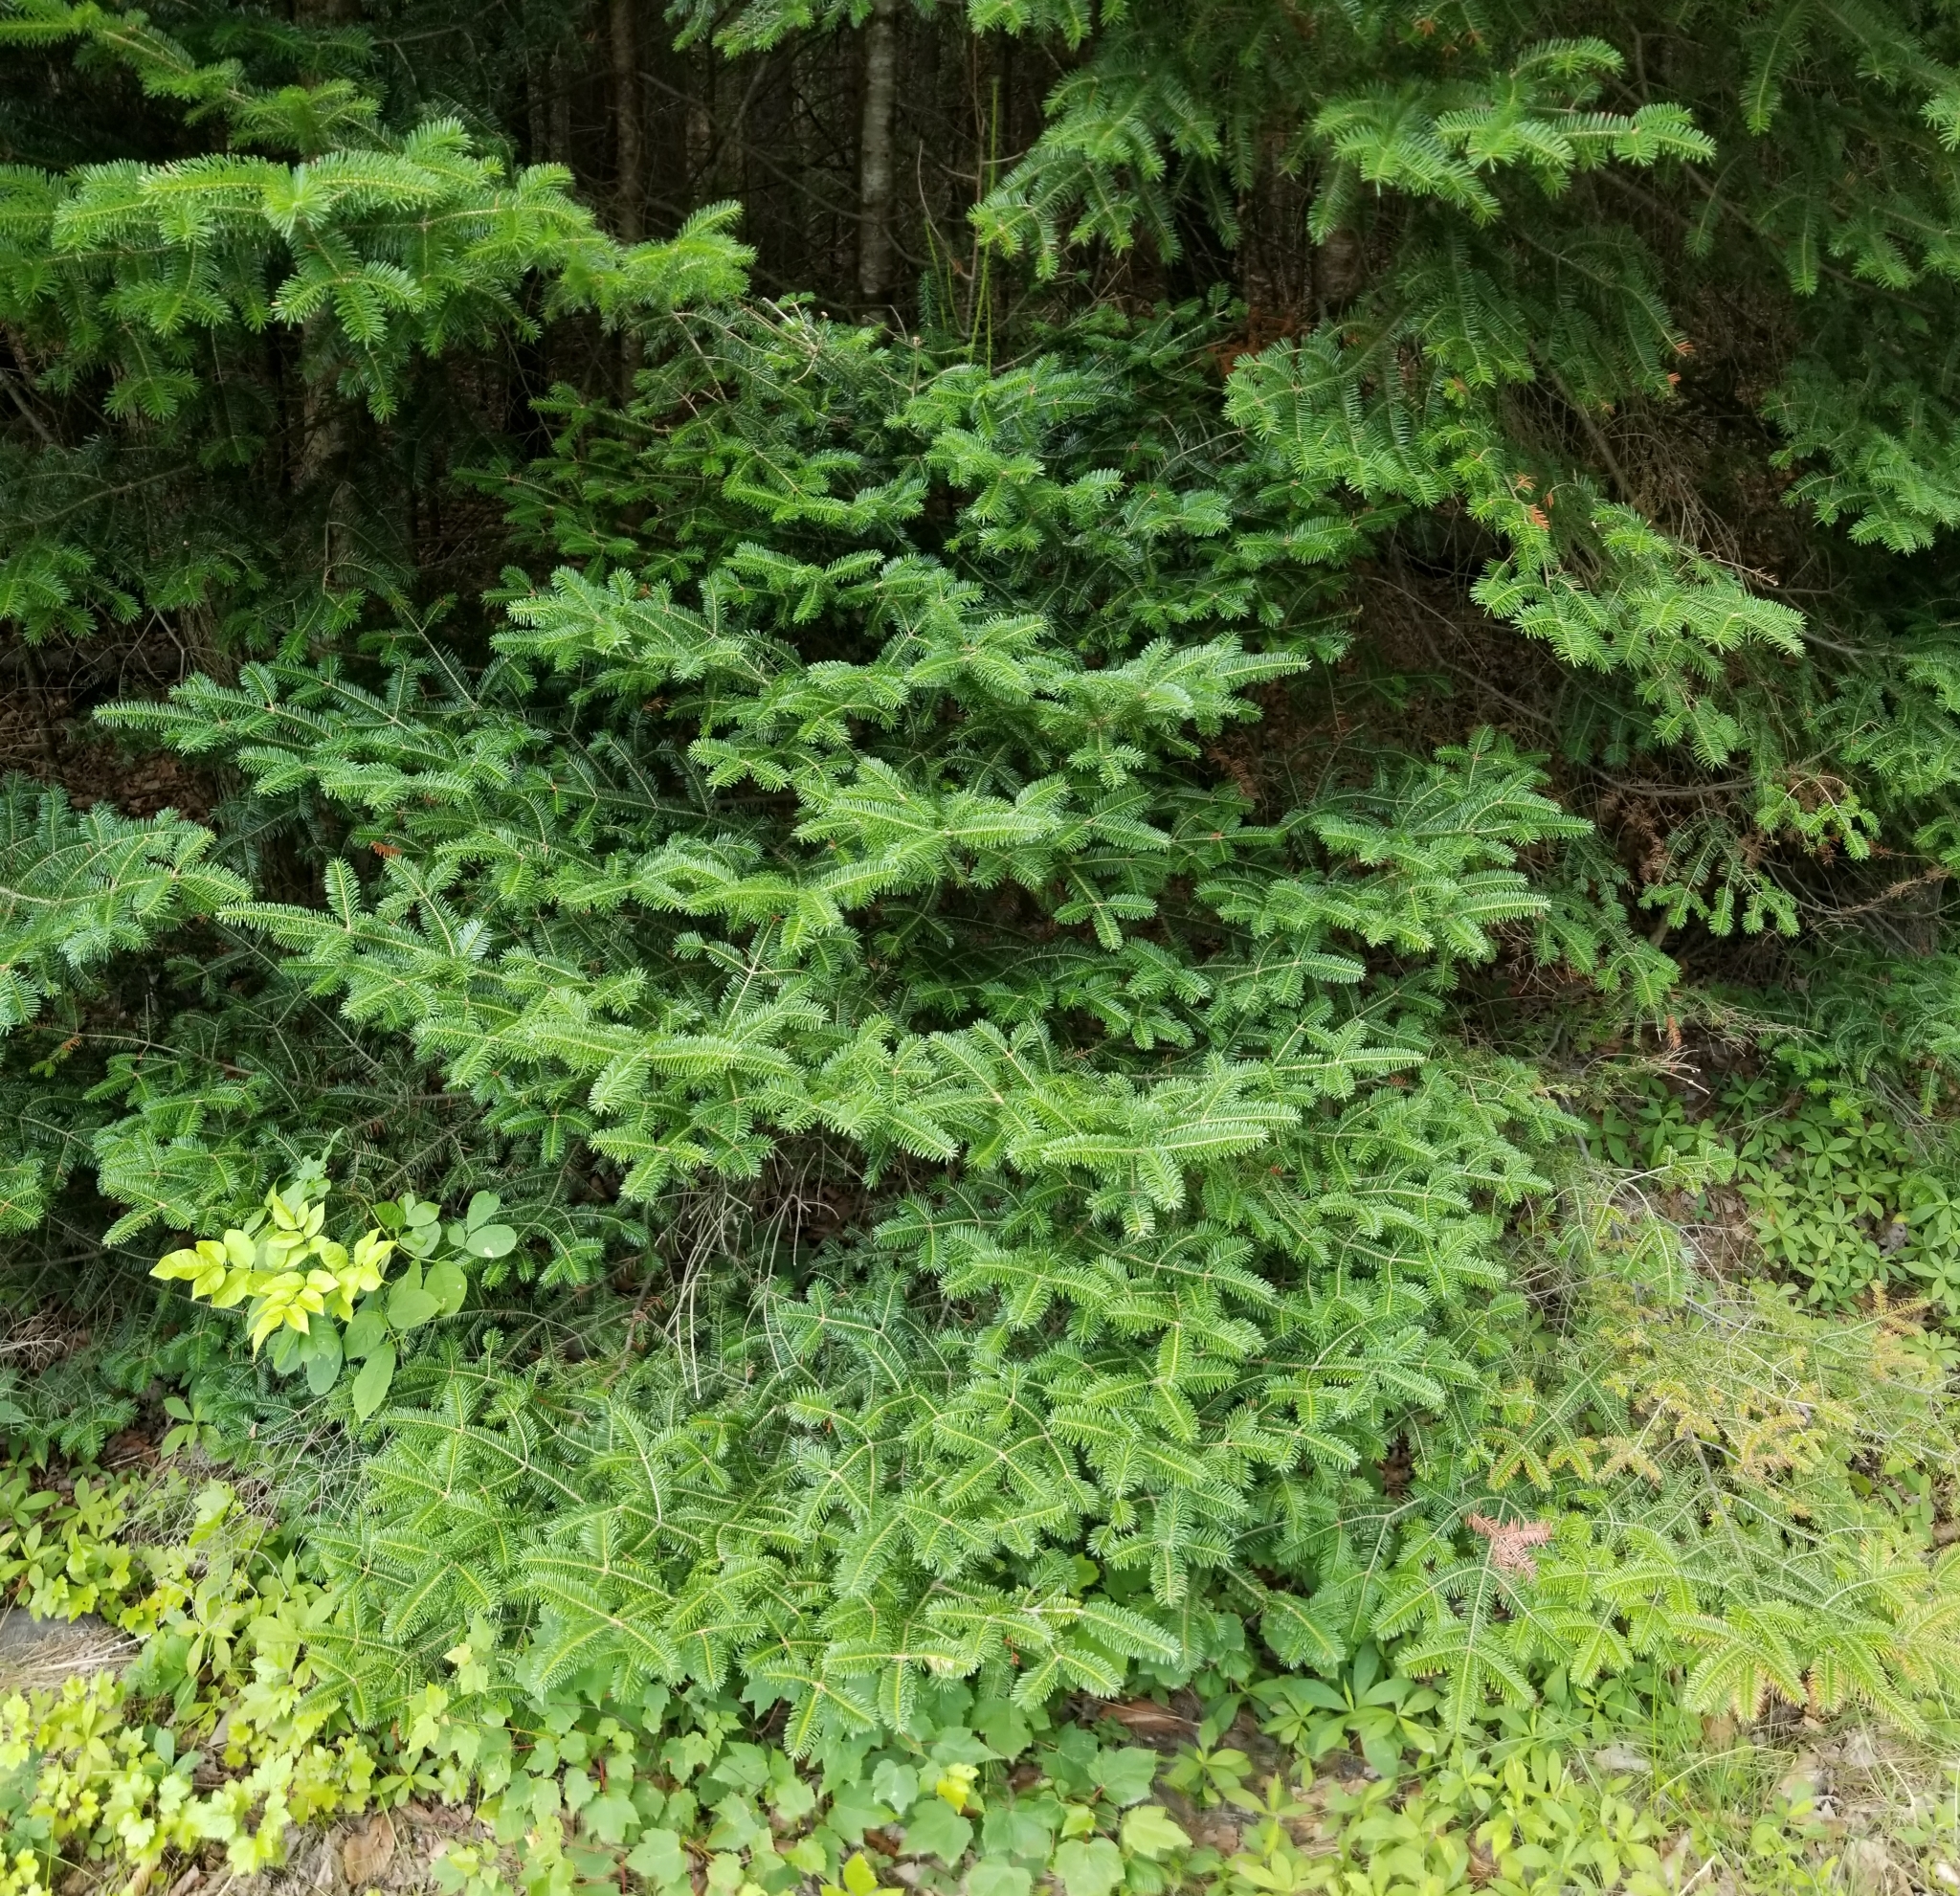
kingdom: Plantae
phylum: Tracheophyta
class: Pinopsida
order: Pinales
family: Pinaceae
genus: Abies
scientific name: Abies balsamea
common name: Balsam fir
